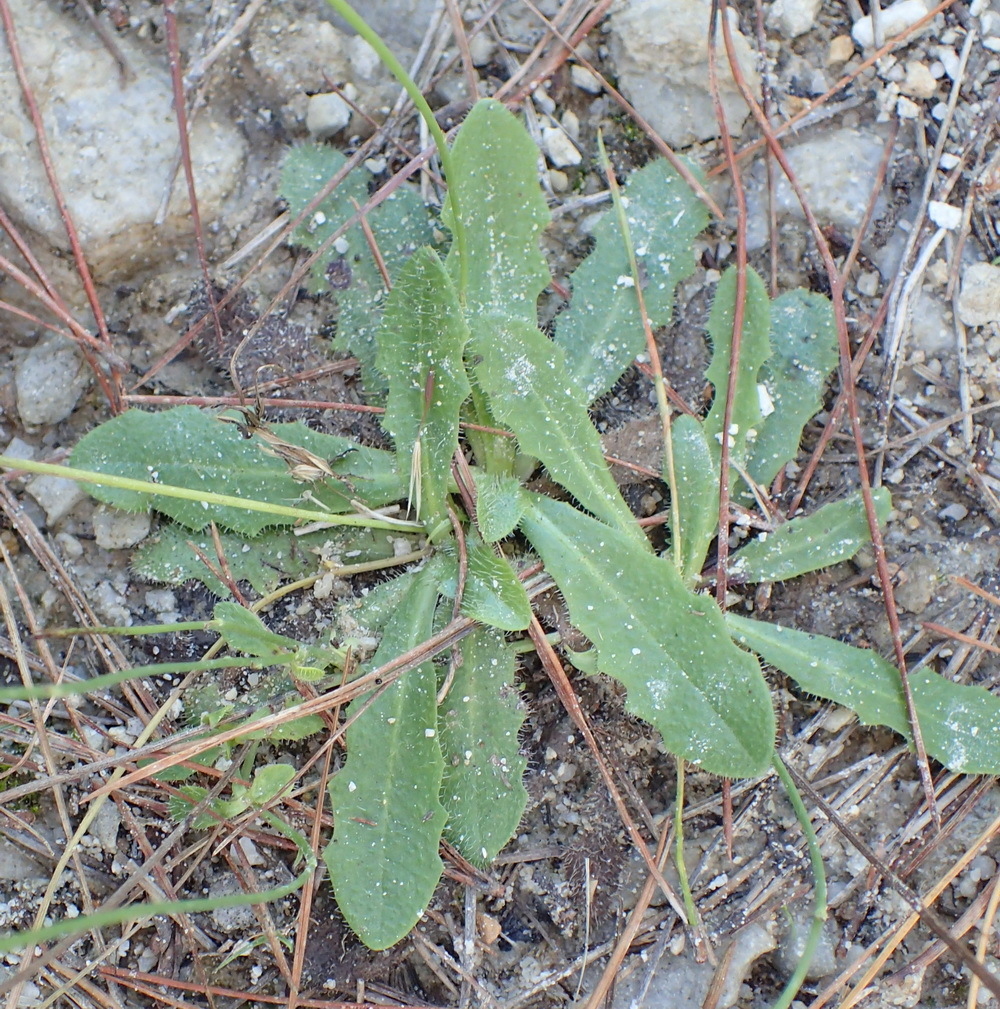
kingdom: Plantae
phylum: Tracheophyta
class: Magnoliopsida
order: Asterales
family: Asteraceae
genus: Hypochaeris
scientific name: Hypochaeris radicata
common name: Flatweed
